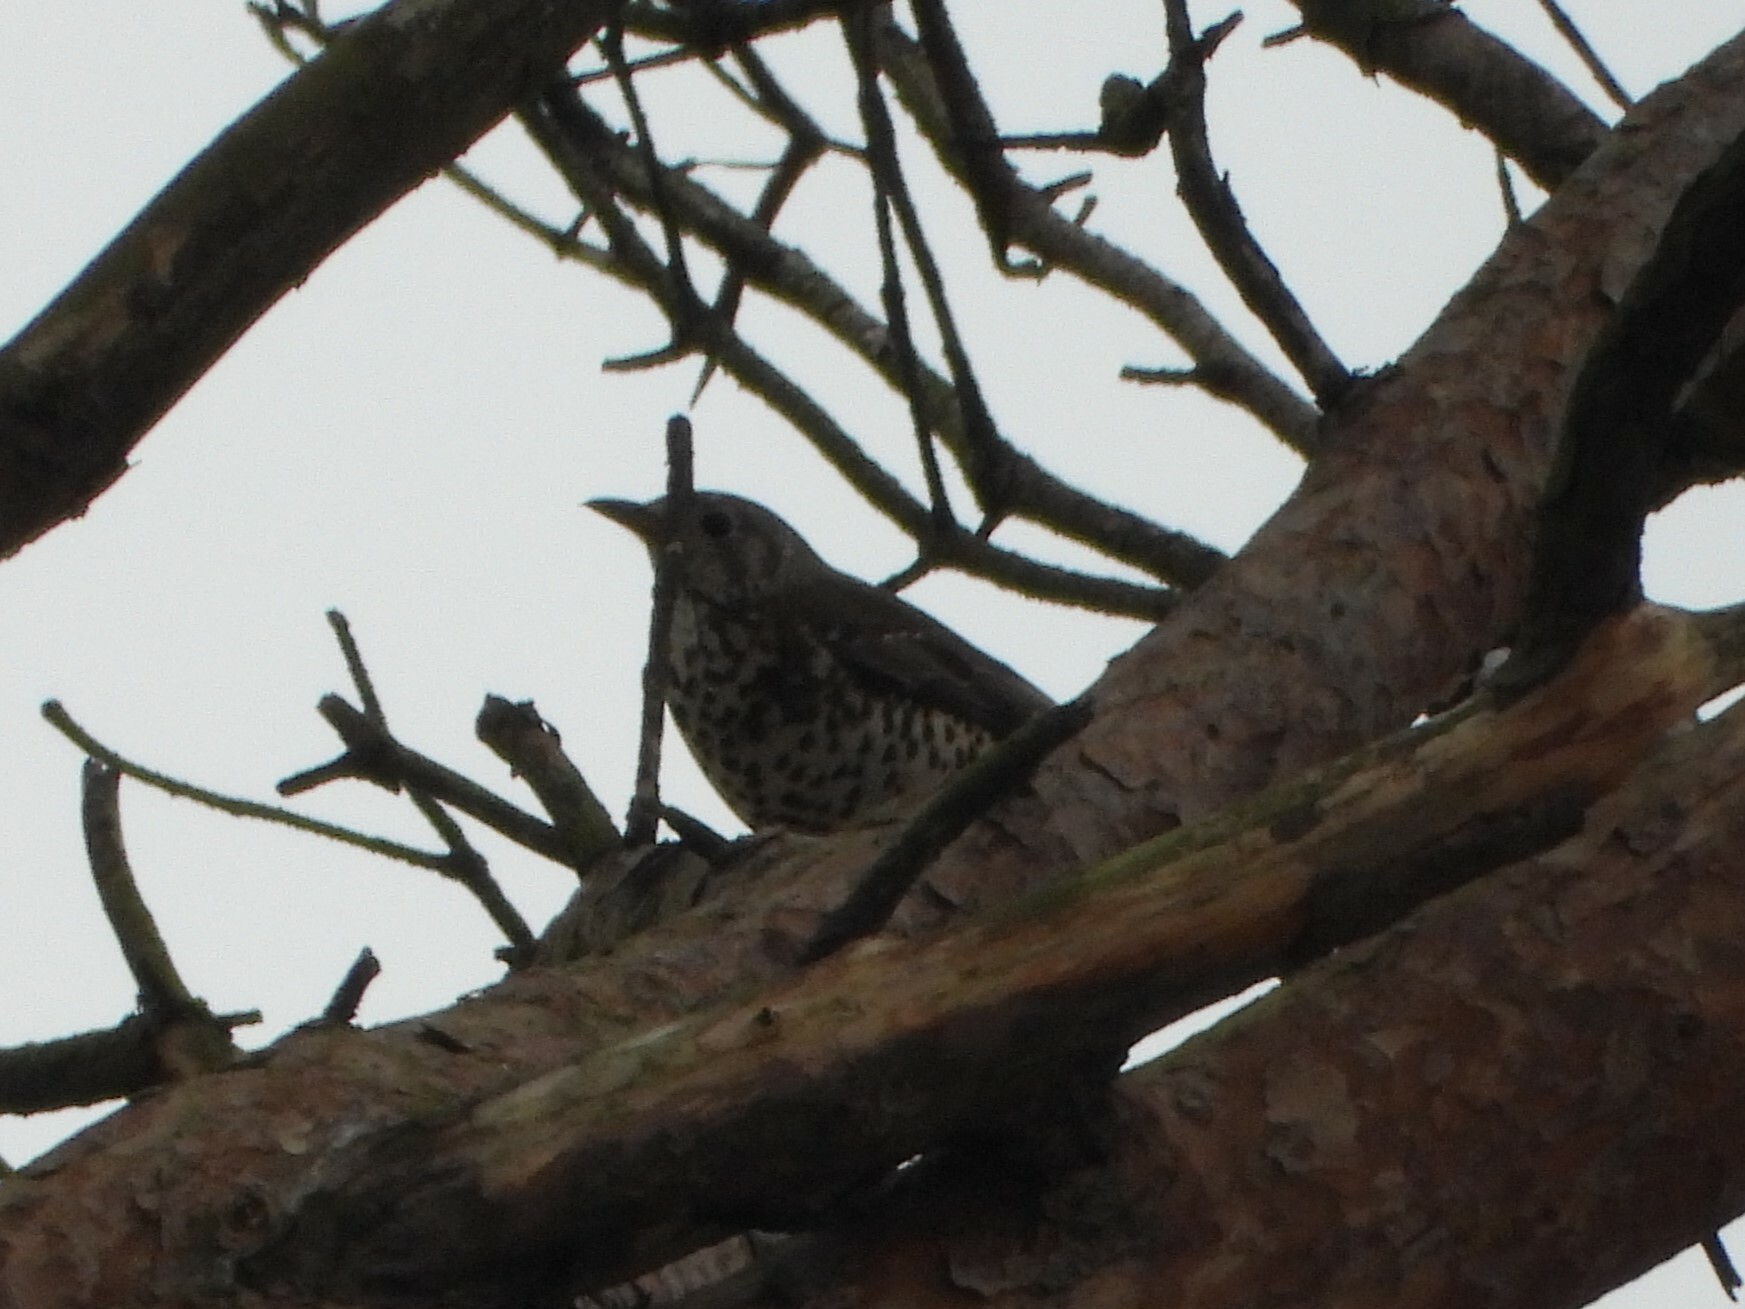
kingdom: Animalia
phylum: Chordata
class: Aves
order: Passeriformes
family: Turdidae
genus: Turdus
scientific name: Turdus viscivorus
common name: Mistle thrush
